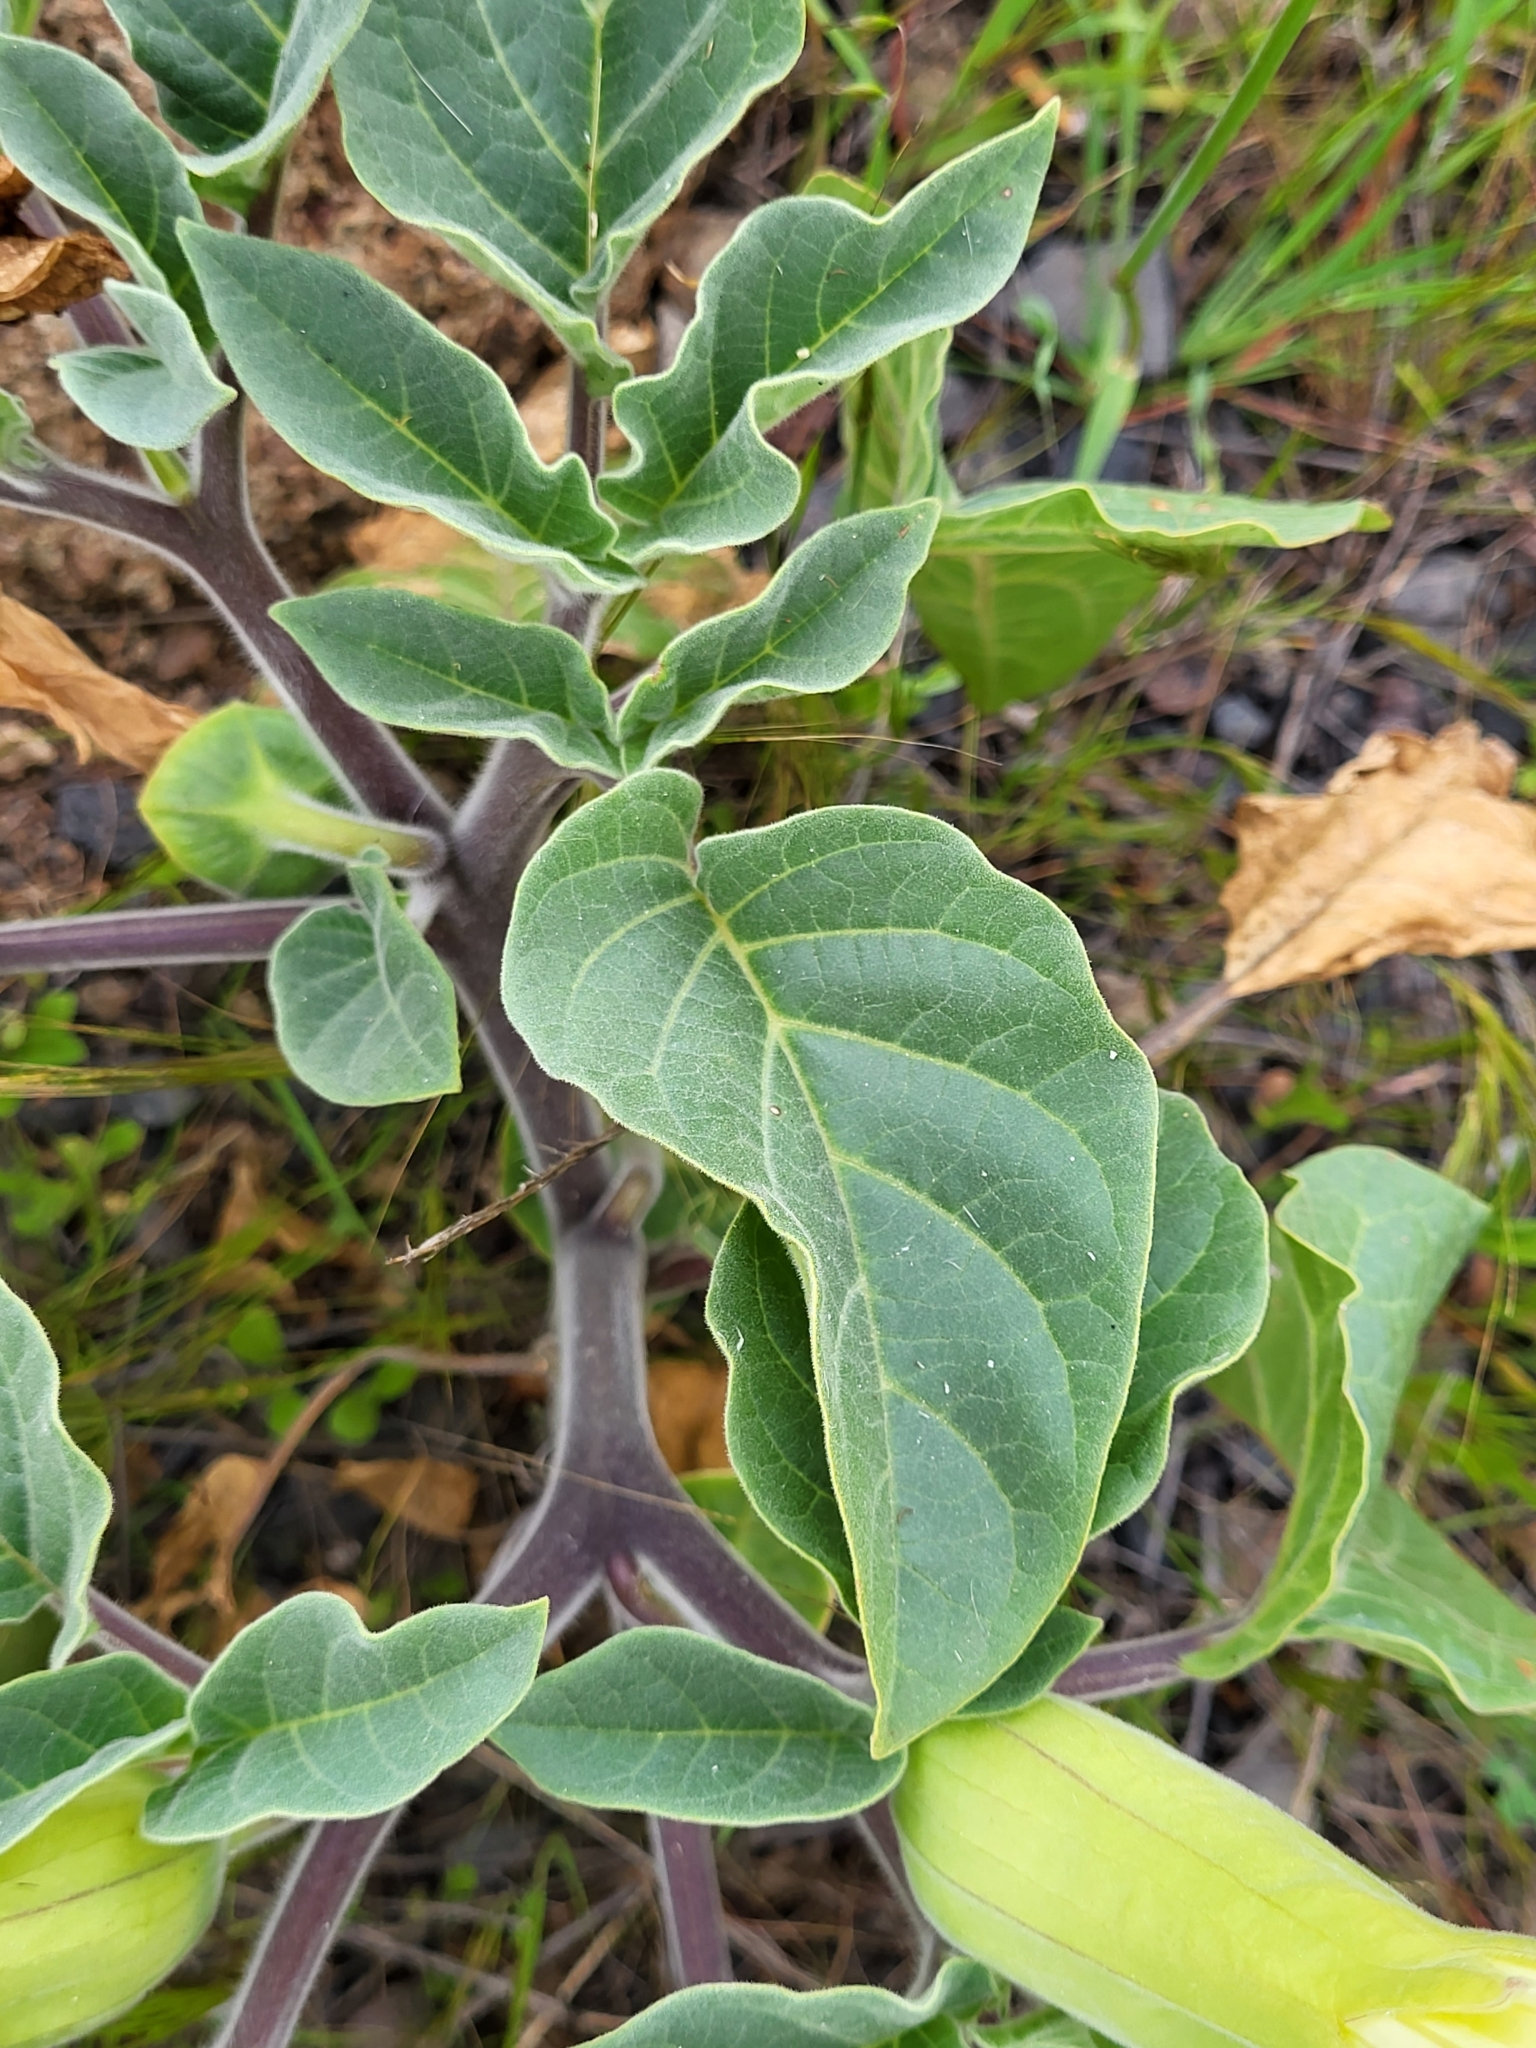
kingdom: Plantae
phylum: Tracheophyta
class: Magnoliopsida
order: Solanales
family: Solanaceae
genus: Datura
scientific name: Datura innoxia
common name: Downy thorn-apple
